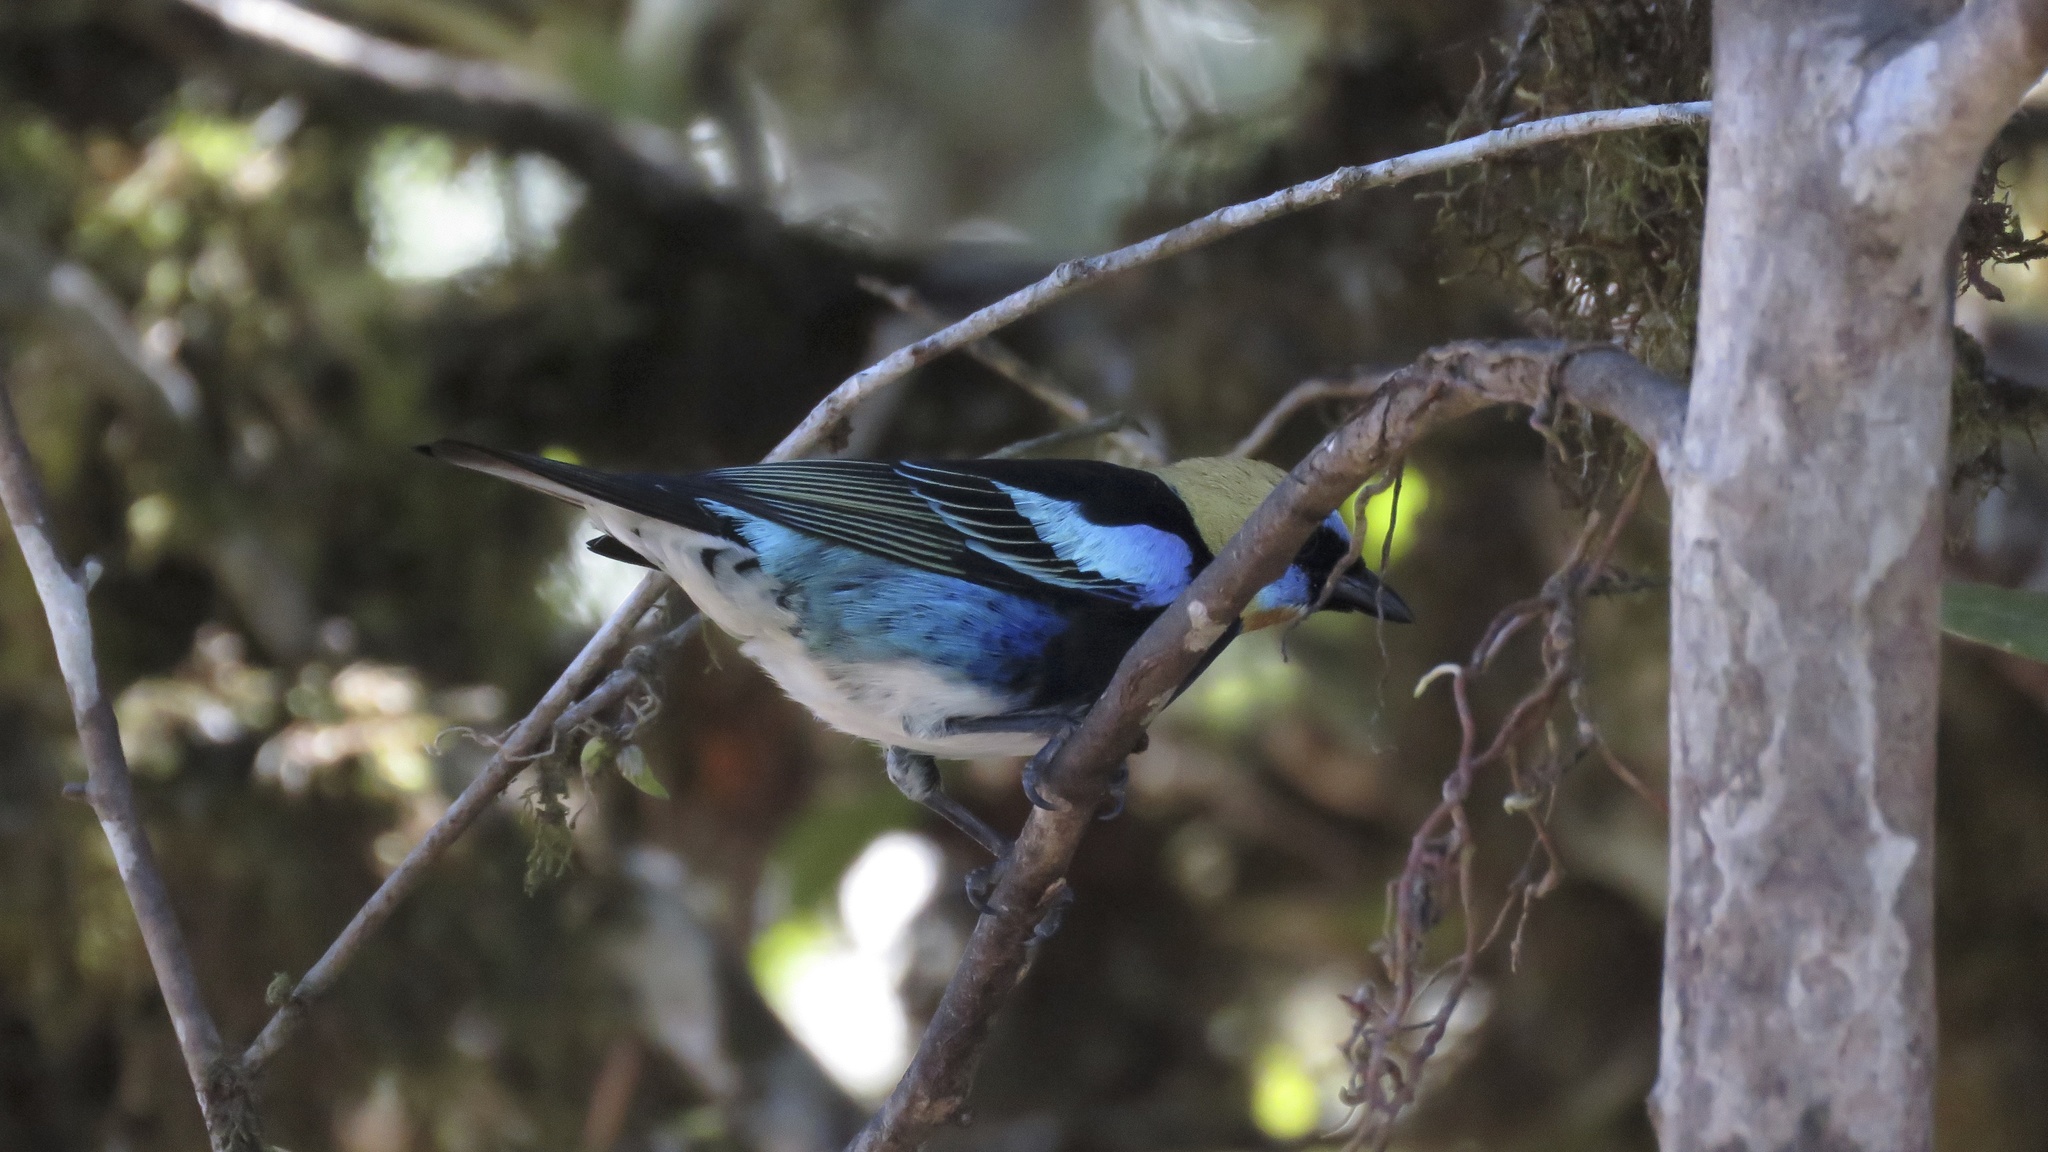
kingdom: Animalia
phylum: Chordata
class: Aves
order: Passeriformes
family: Thraupidae
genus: Stilpnia
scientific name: Stilpnia larvata
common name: Golden-hooded tanager
